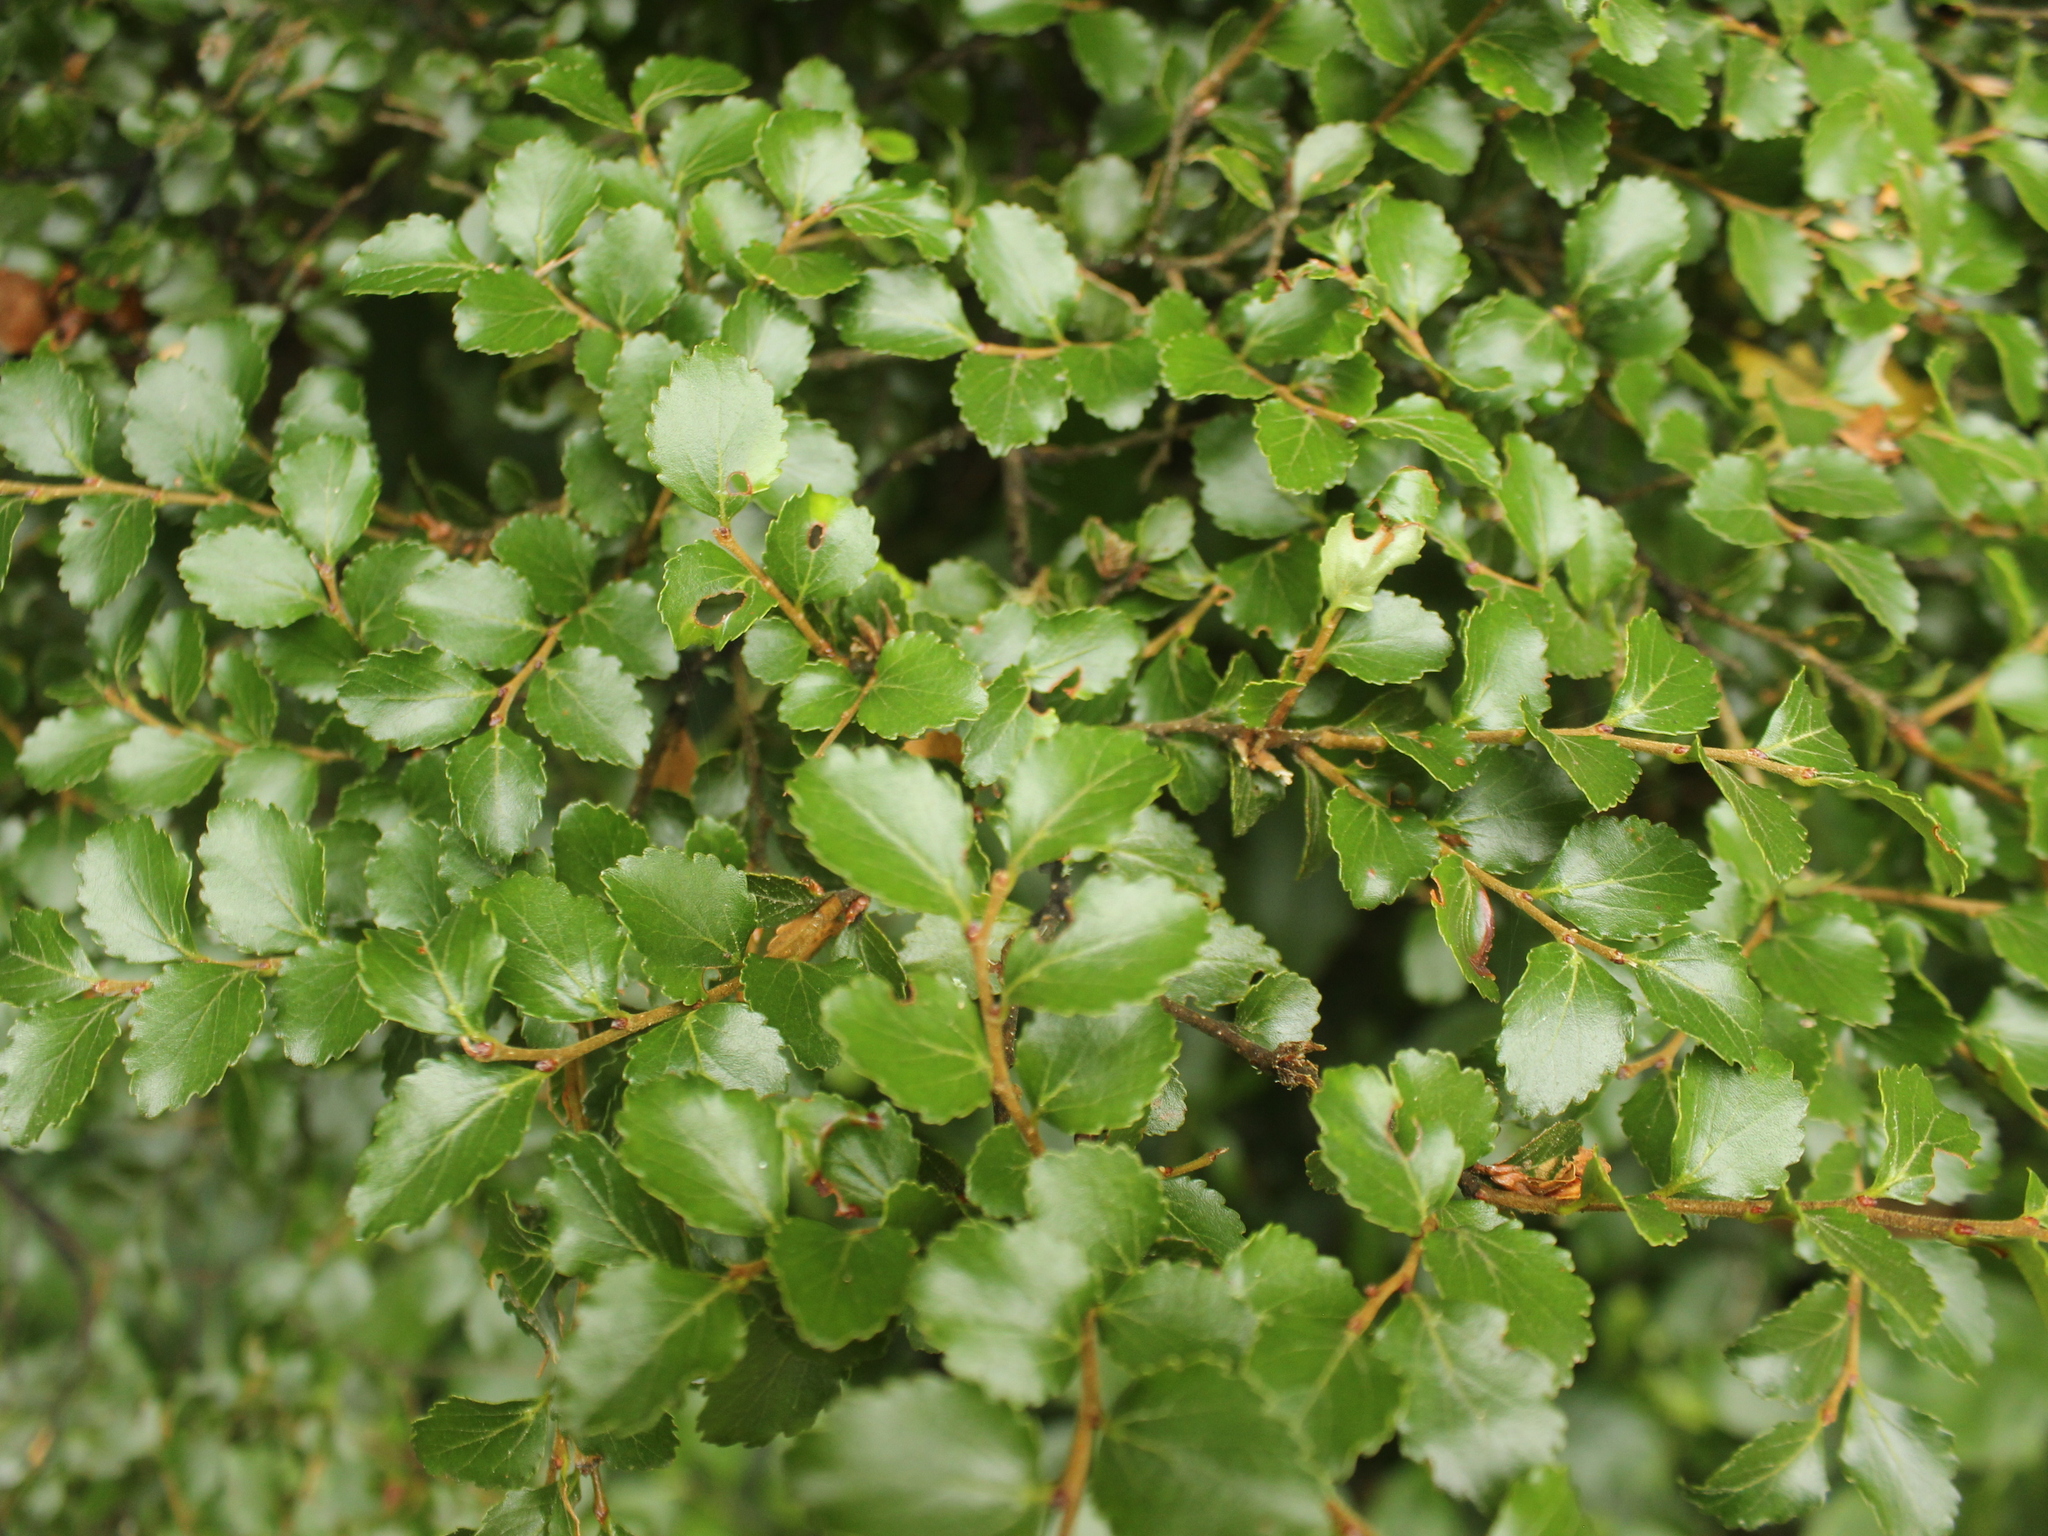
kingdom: Plantae
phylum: Tracheophyta
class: Magnoliopsida
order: Fagales
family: Nothofagaceae
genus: Nothofagus
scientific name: Nothofagus menziesii
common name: Silver beech
